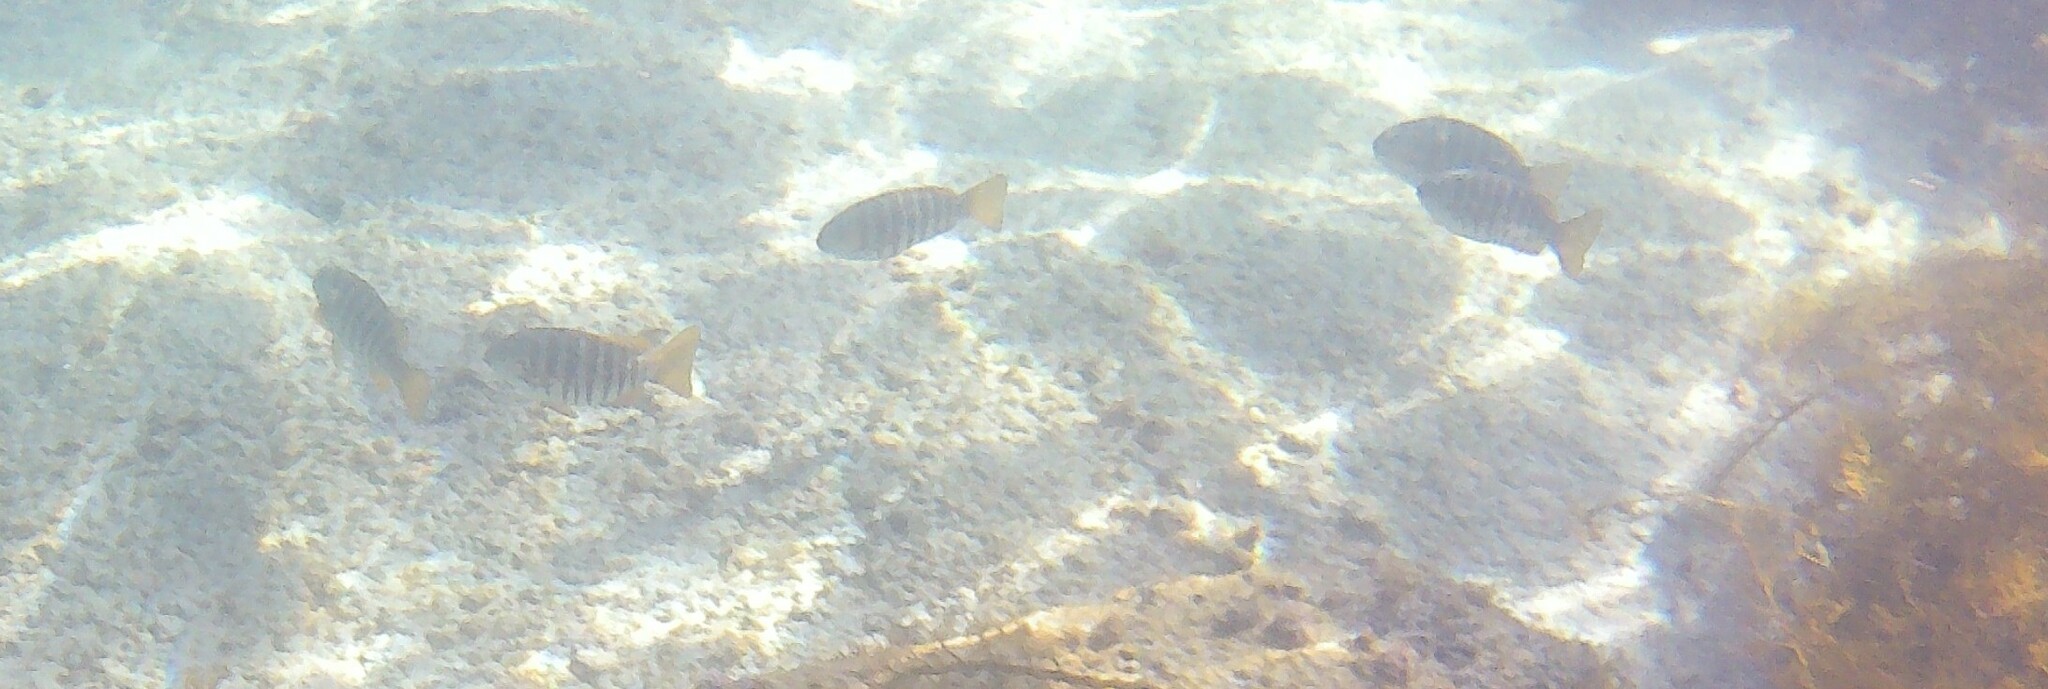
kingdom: Animalia
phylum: Chordata
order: Perciformes
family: Kyphosidae
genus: Girella
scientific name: Girella zebra
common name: Stripey bream
